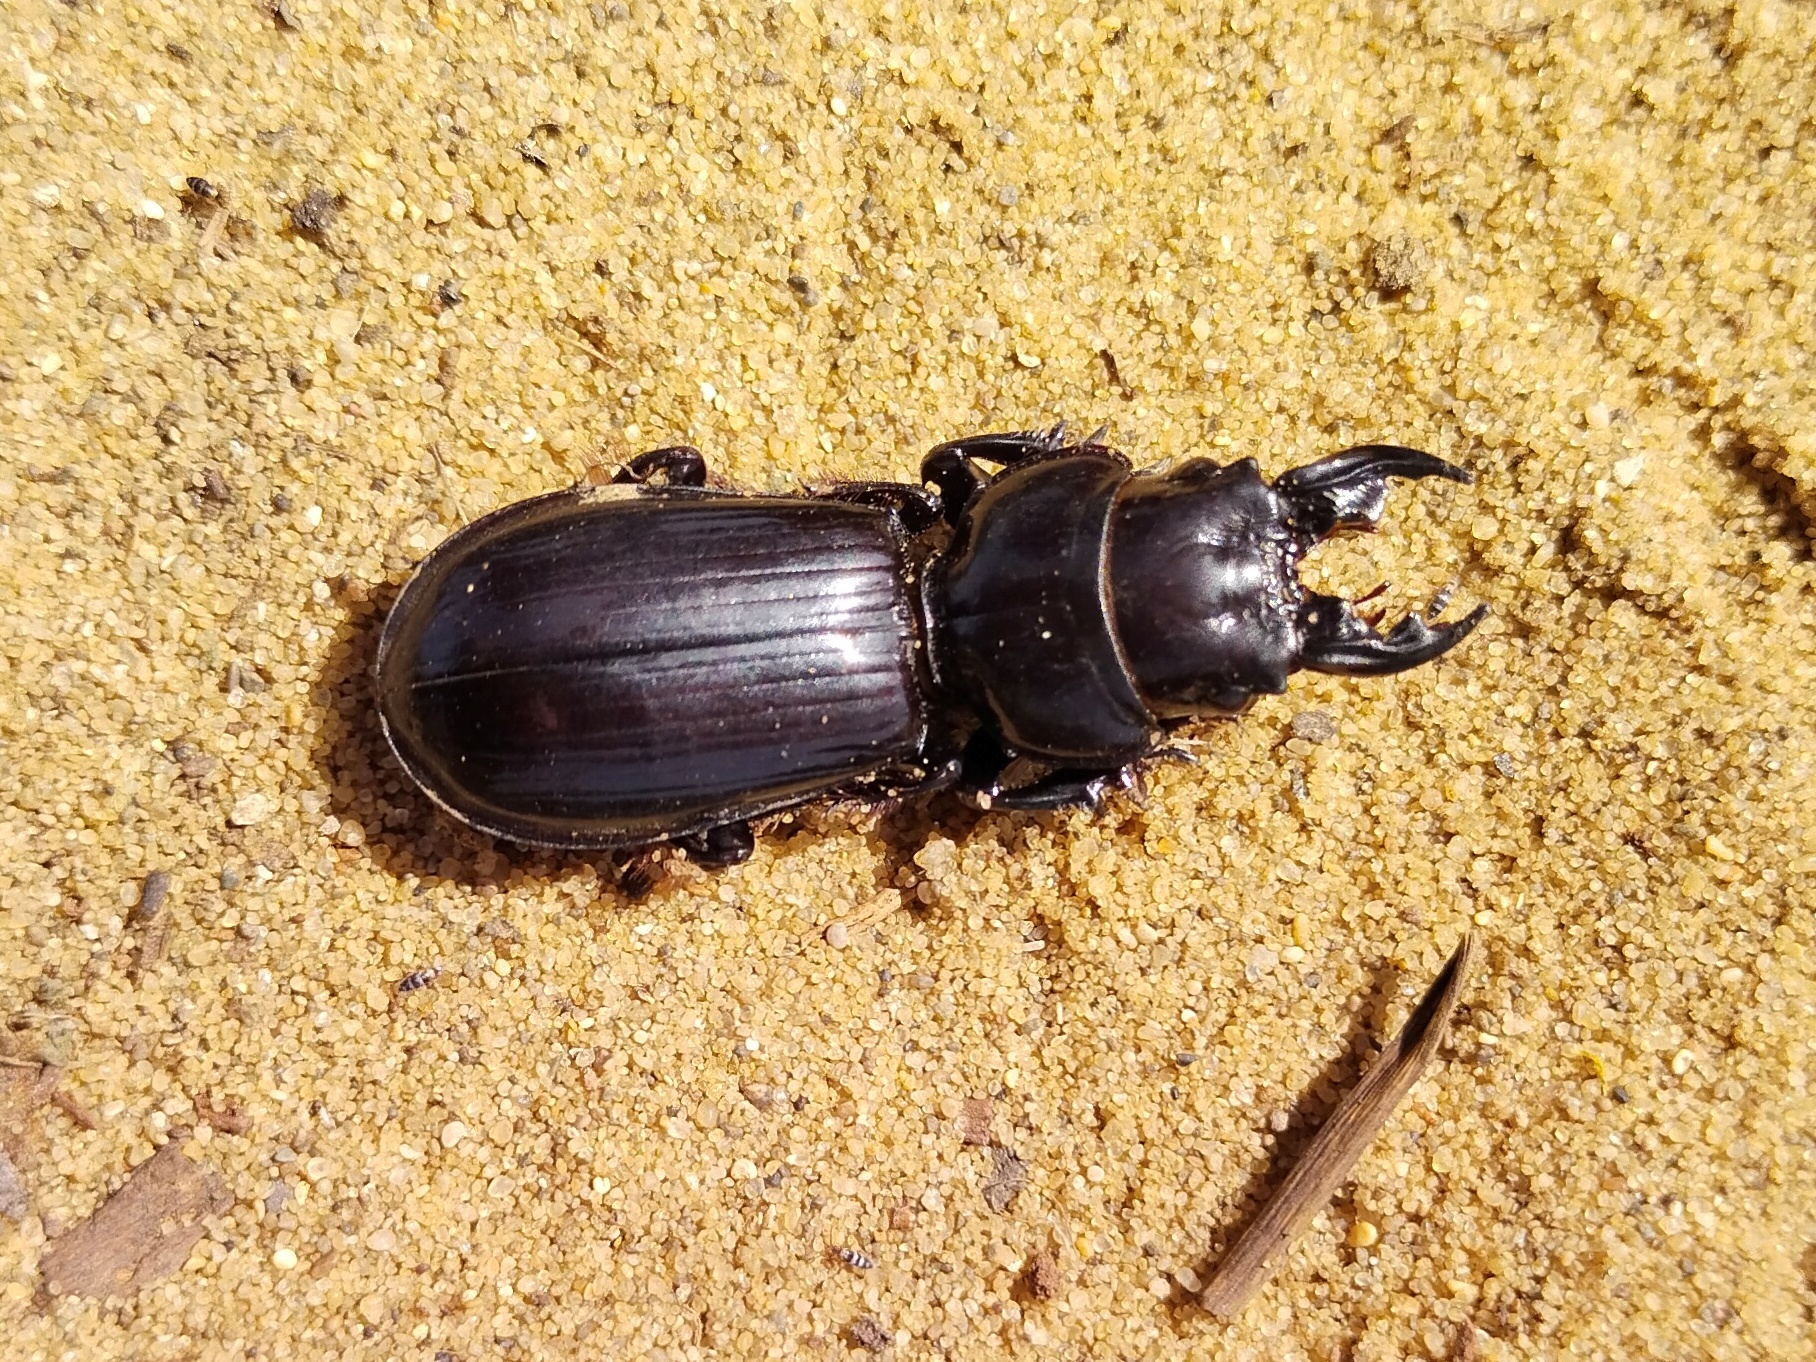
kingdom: Animalia
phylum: Arthropoda
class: Insecta
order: Coleoptera
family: Carabidae
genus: Scarites
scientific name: Scarites bucida
